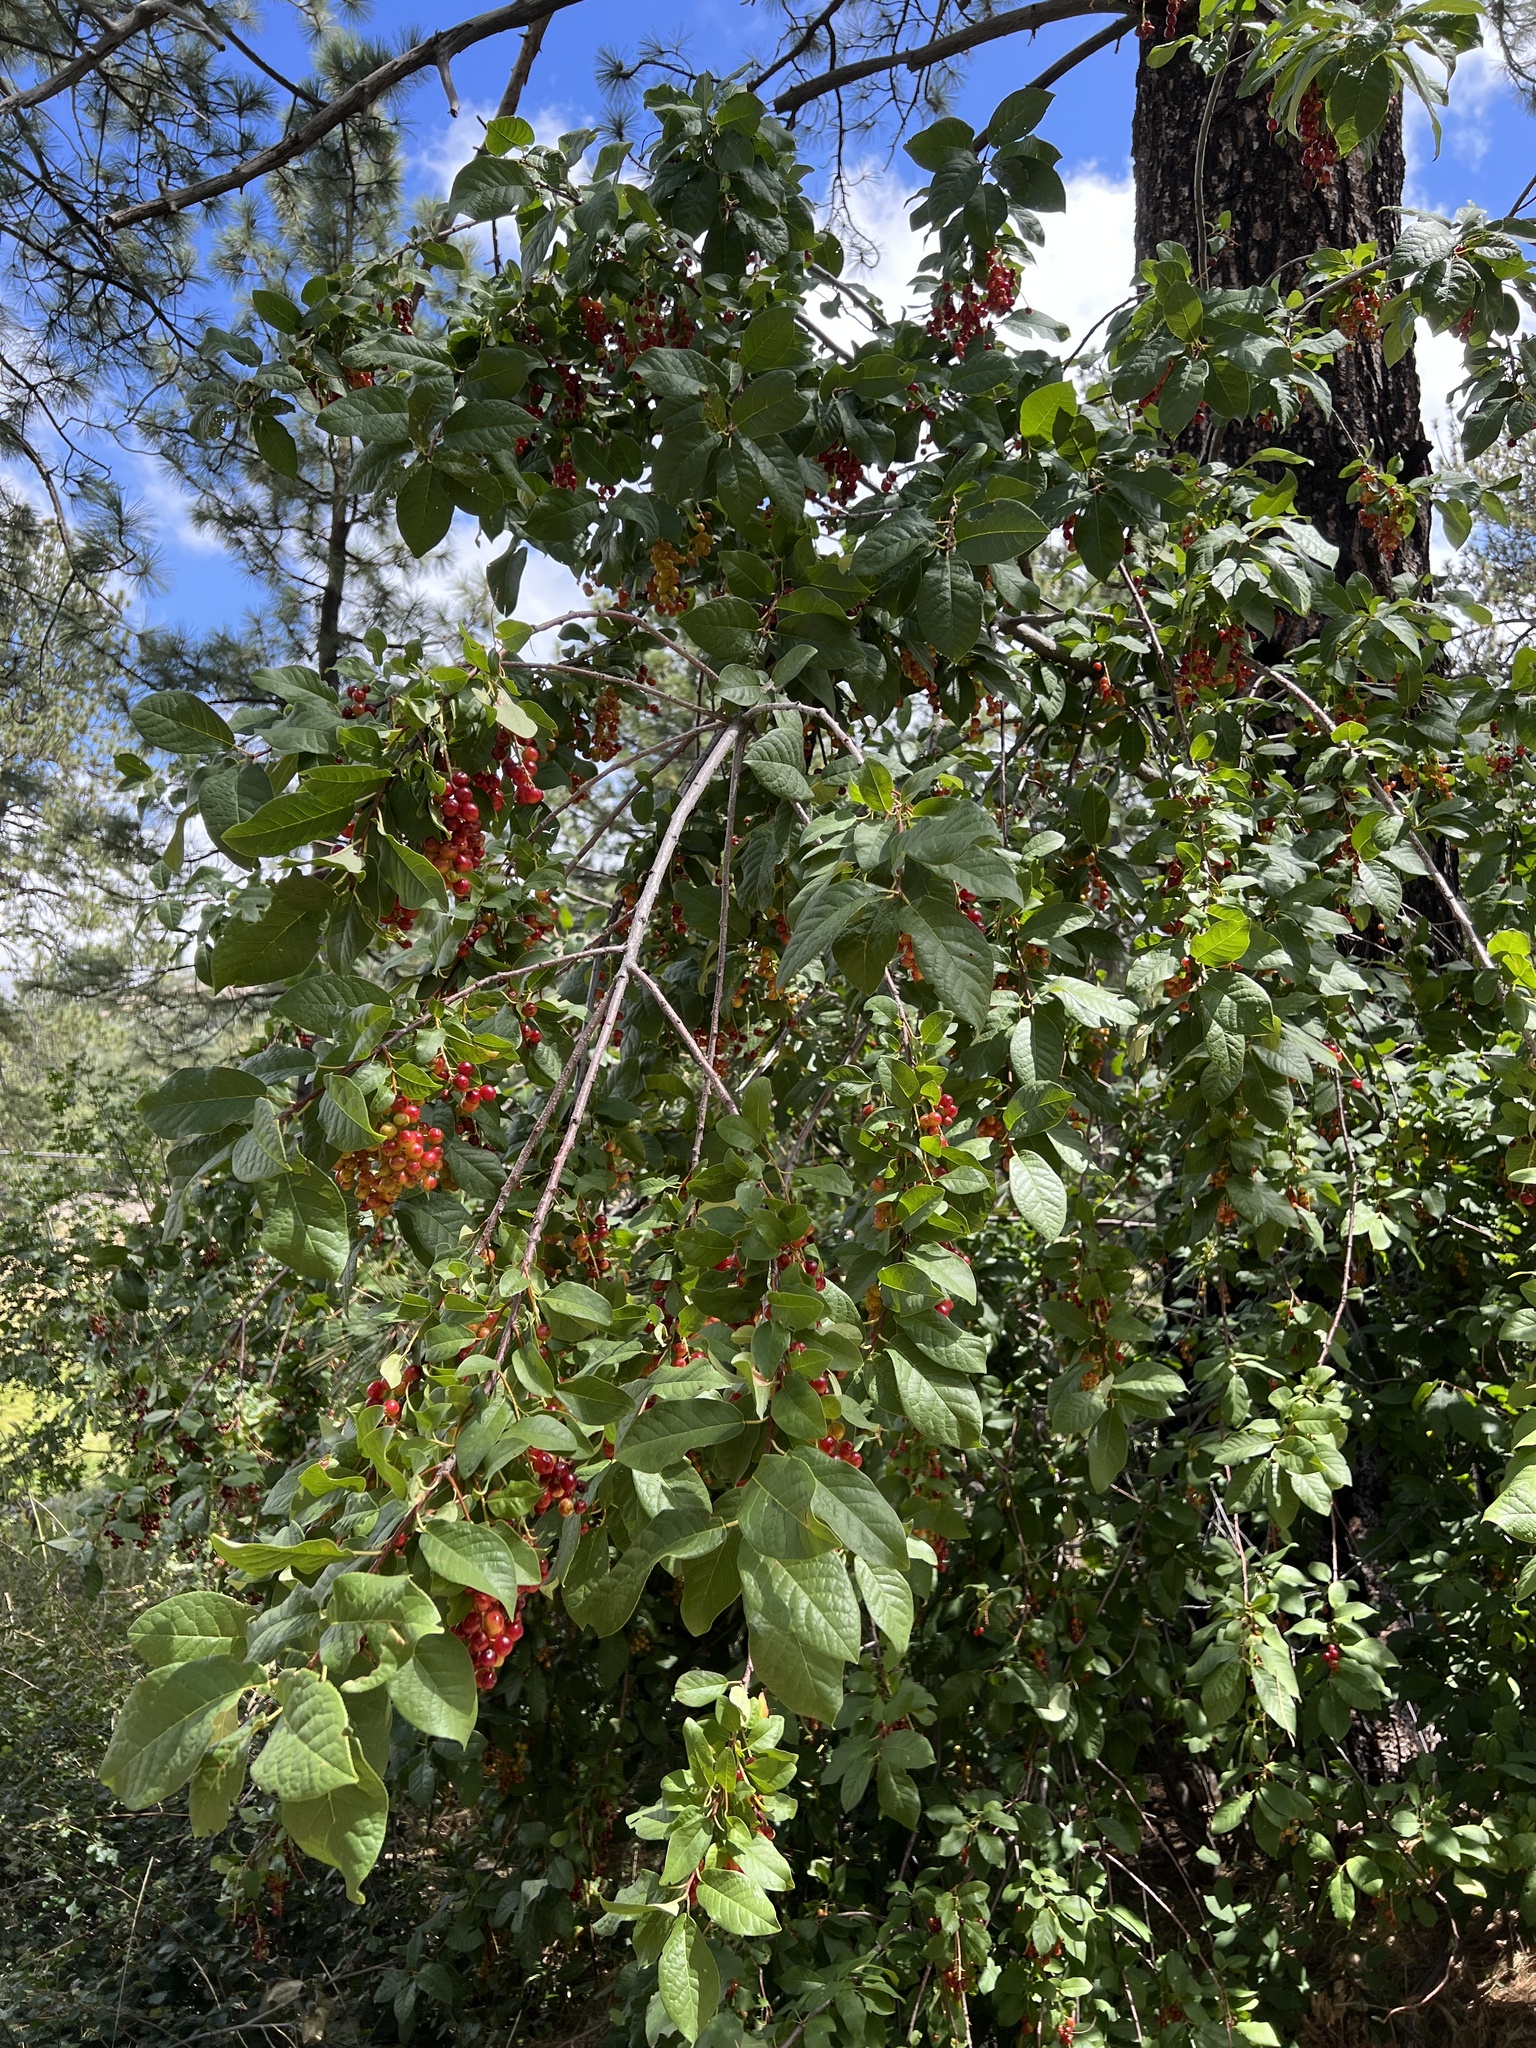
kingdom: Plantae
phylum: Tracheophyta
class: Magnoliopsida
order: Rosales
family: Rosaceae
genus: Prunus
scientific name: Prunus virginiana
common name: Chokecherry
